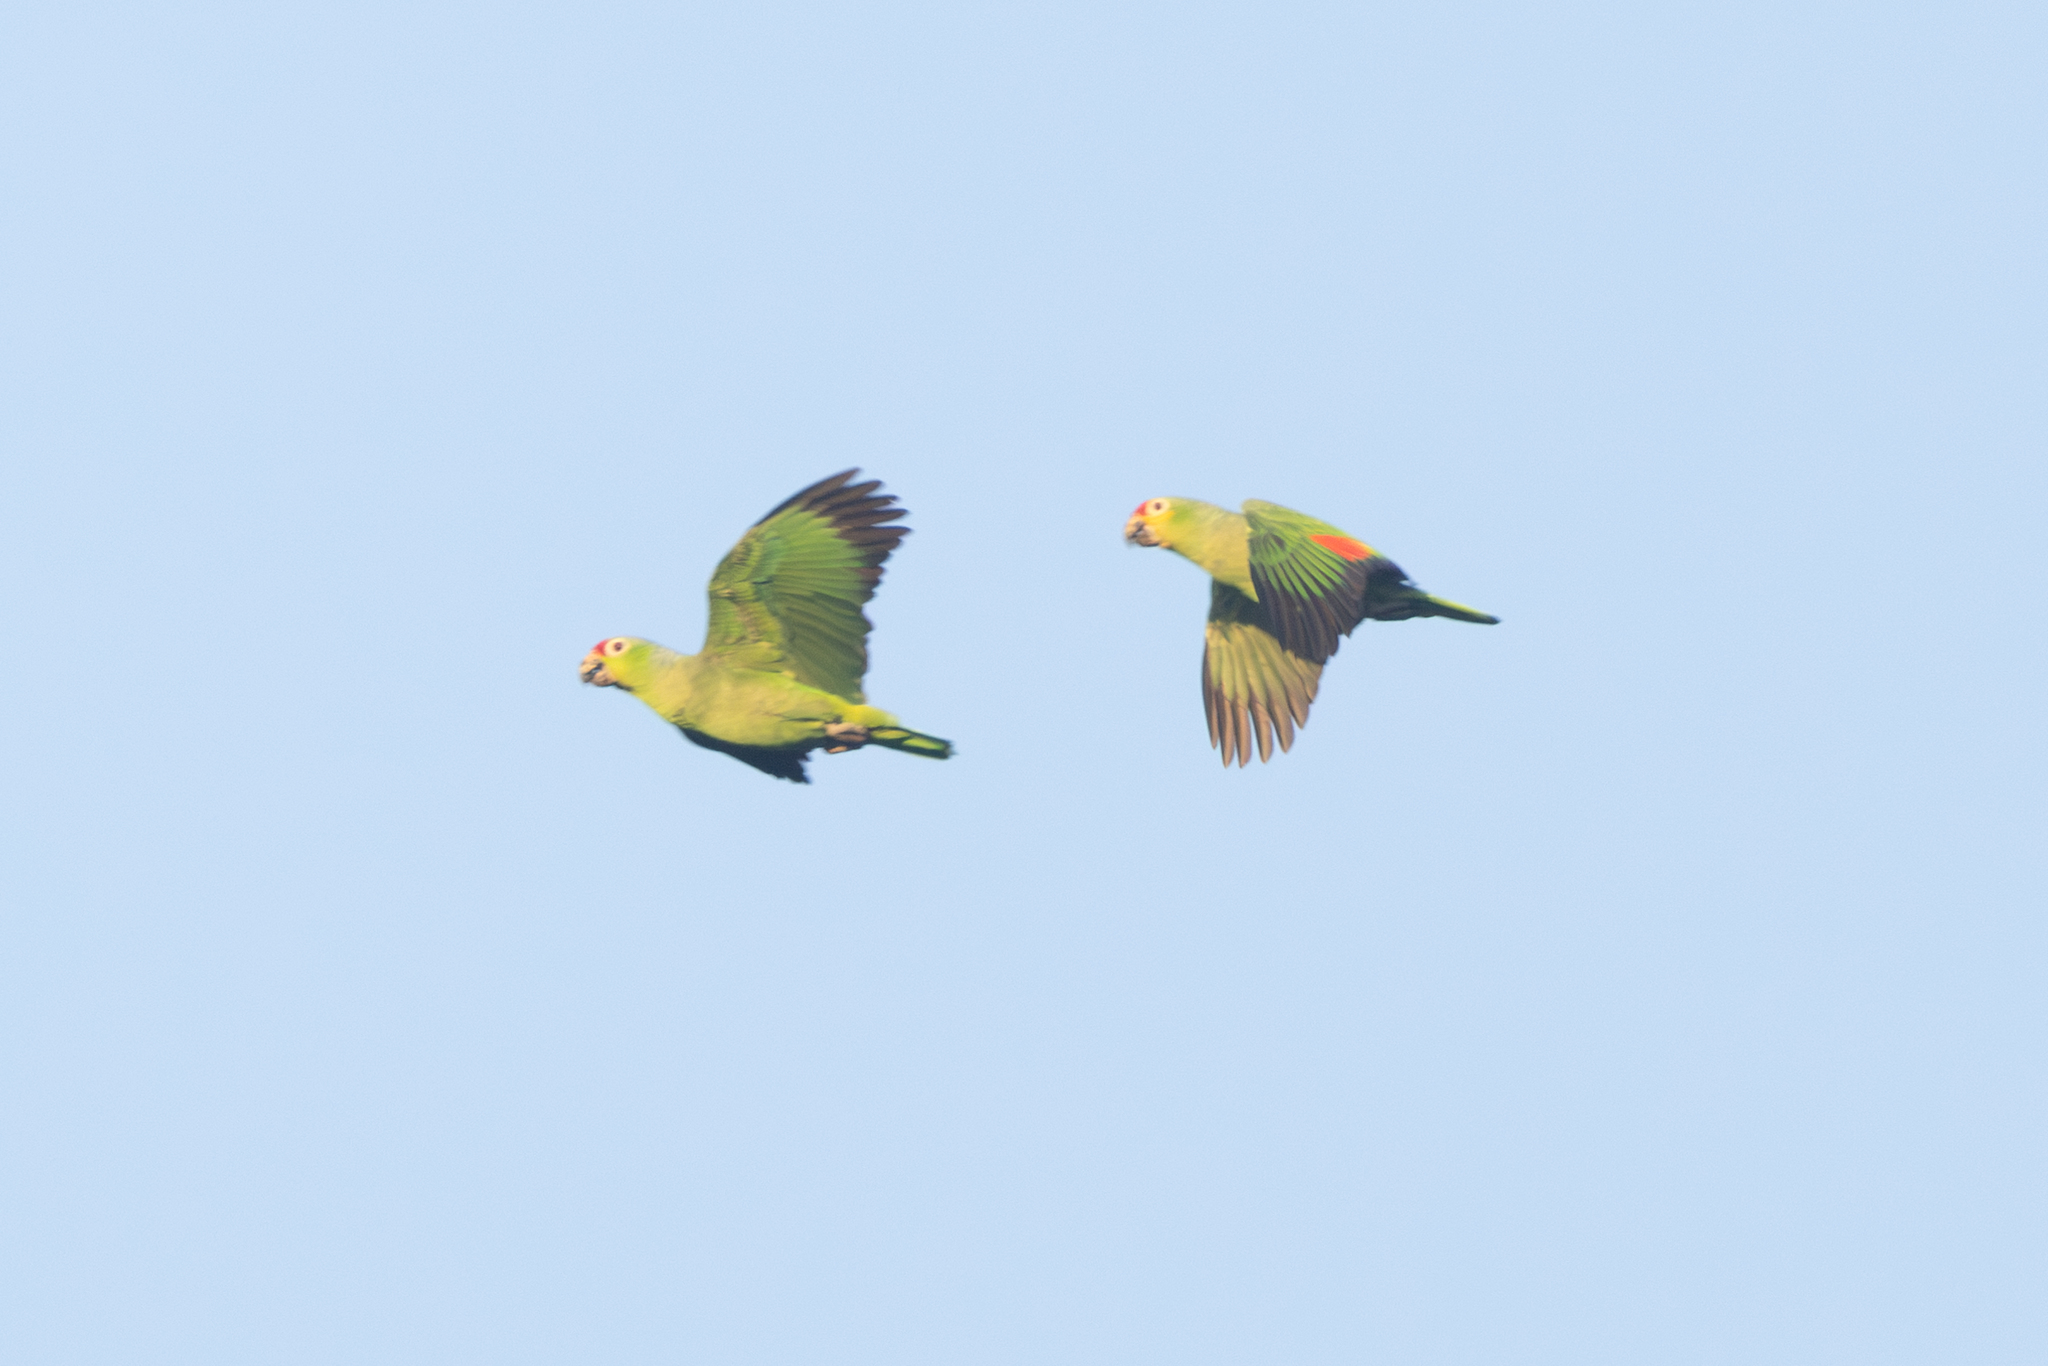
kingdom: Animalia
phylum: Chordata
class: Aves
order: Psittaciformes
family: Psittacidae
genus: Amazona
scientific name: Amazona autumnalis
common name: Red-lored amazon
